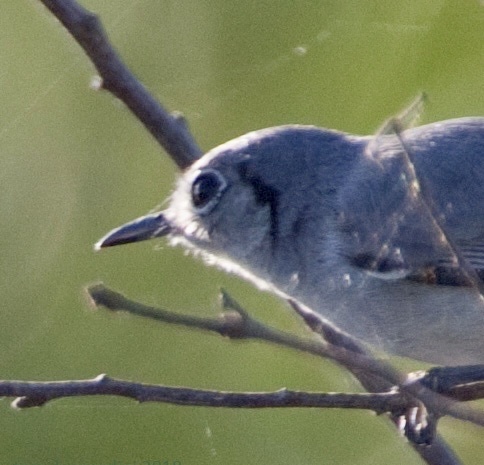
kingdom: Animalia
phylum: Chordata
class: Aves
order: Passeriformes
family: Polioptilidae
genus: Polioptila
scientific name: Polioptila lembeyei
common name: Cuban gnatcatcher
